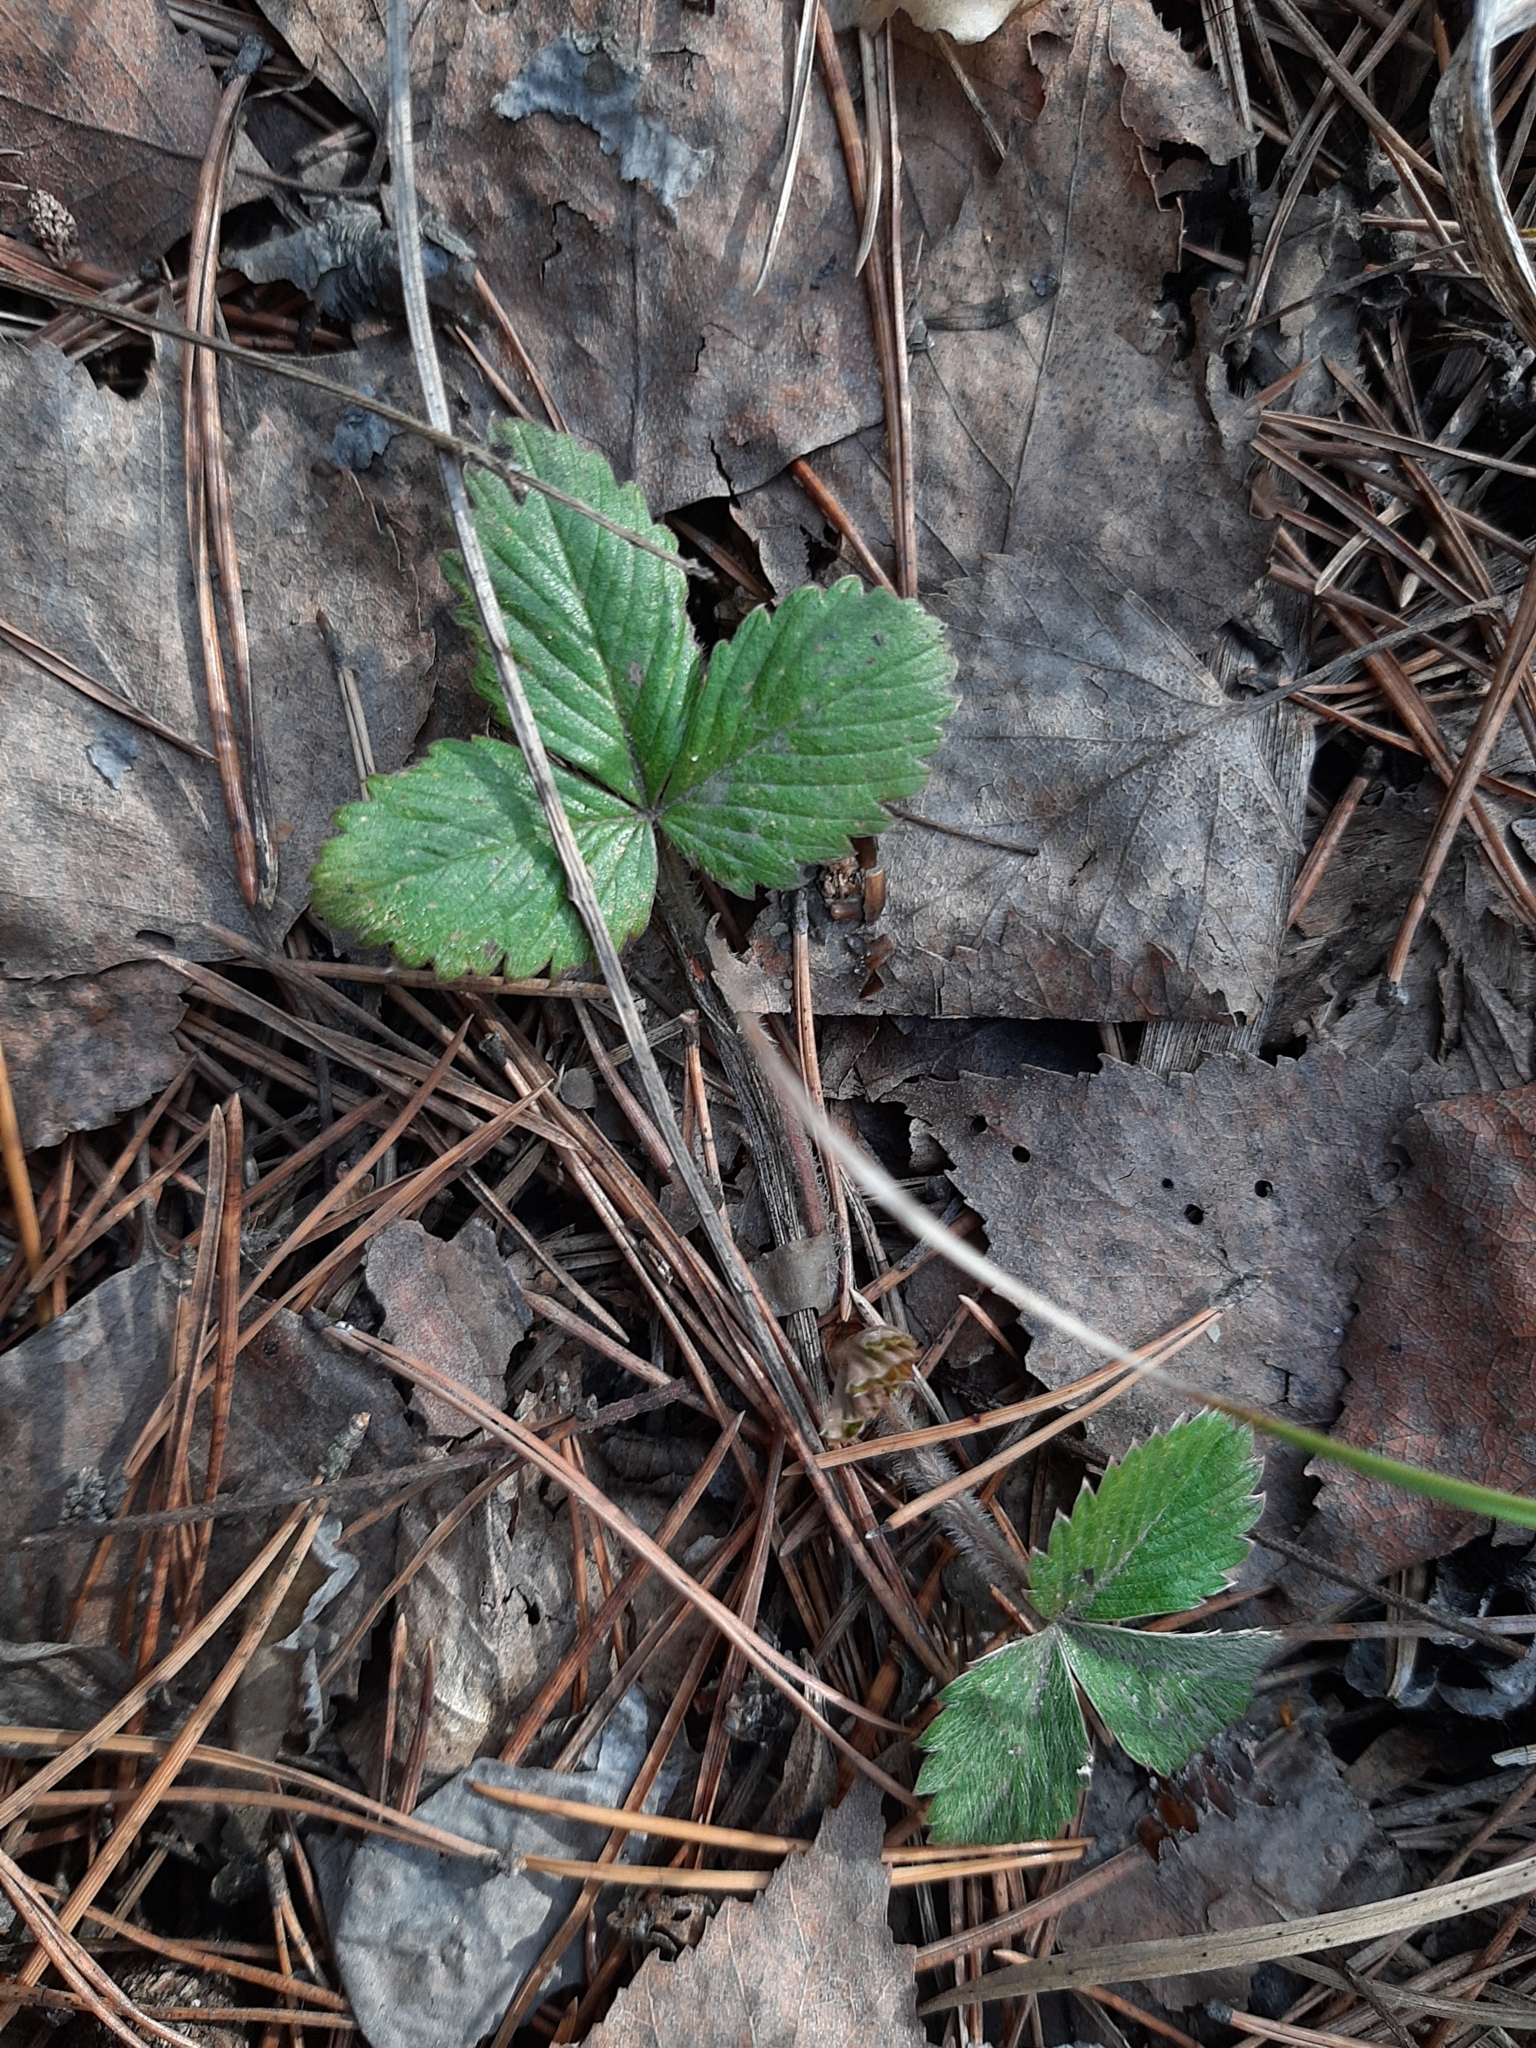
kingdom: Plantae
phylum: Tracheophyta
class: Magnoliopsida
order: Rosales
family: Rosaceae
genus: Fragaria
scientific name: Fragaria vesca
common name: Wild strawberry
